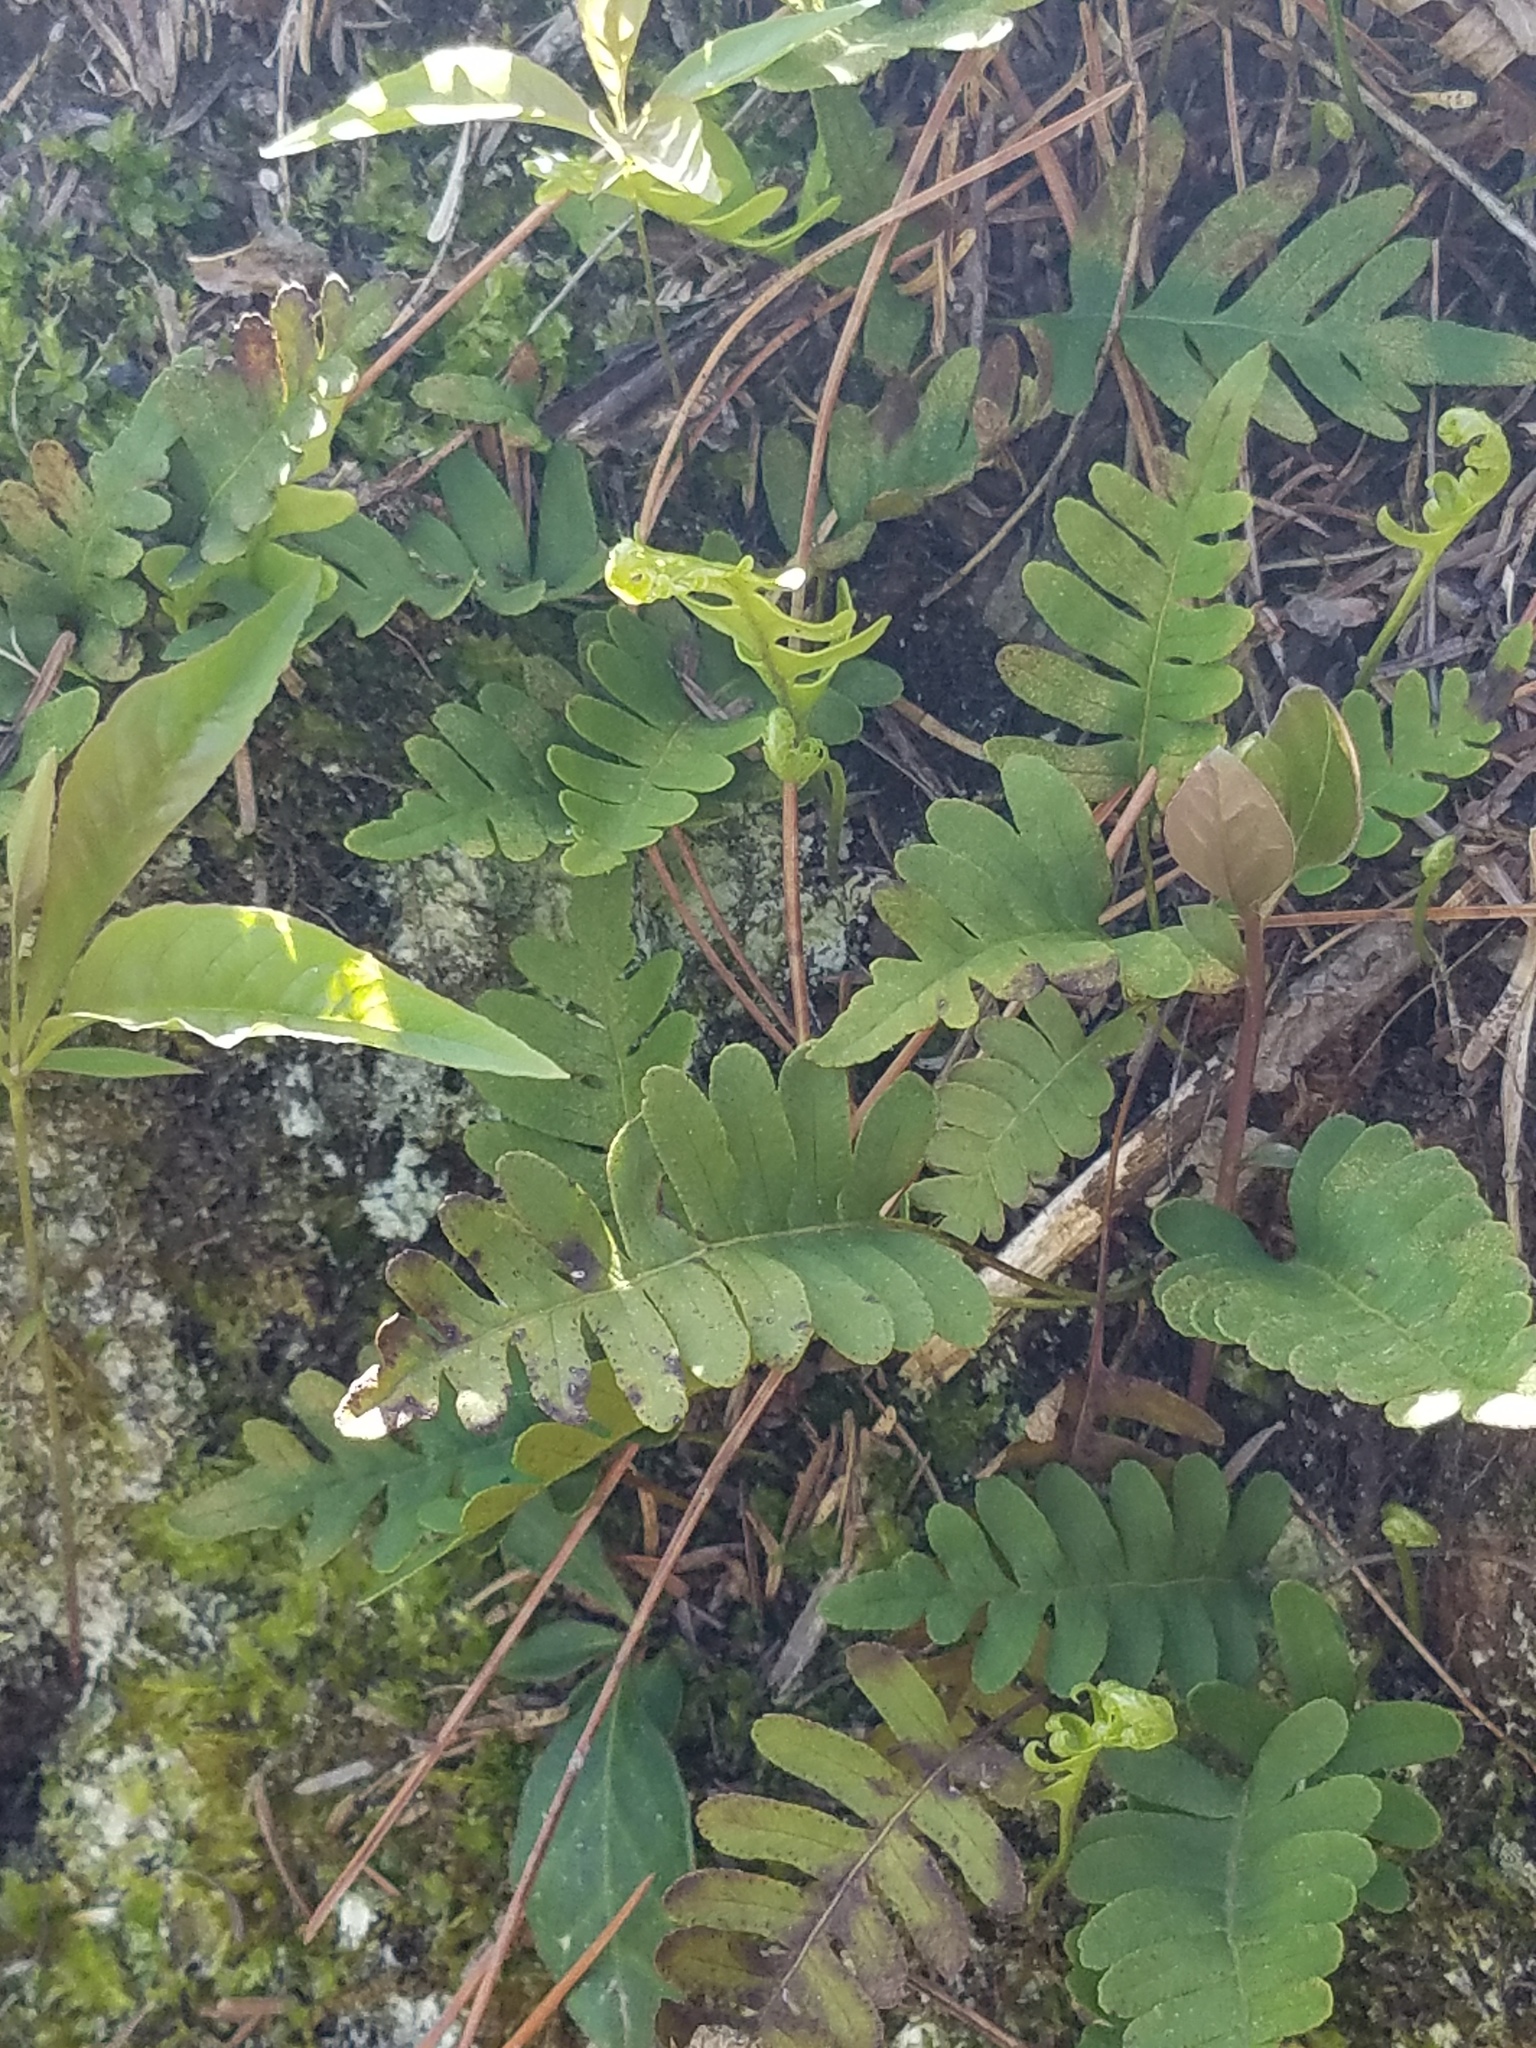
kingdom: Plantae
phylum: Tracheophyta
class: Polypodiopsida
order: Polypodiales
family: Polypodiaceae
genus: Polypodium
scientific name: Polypodium virginianum
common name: American wall fern
